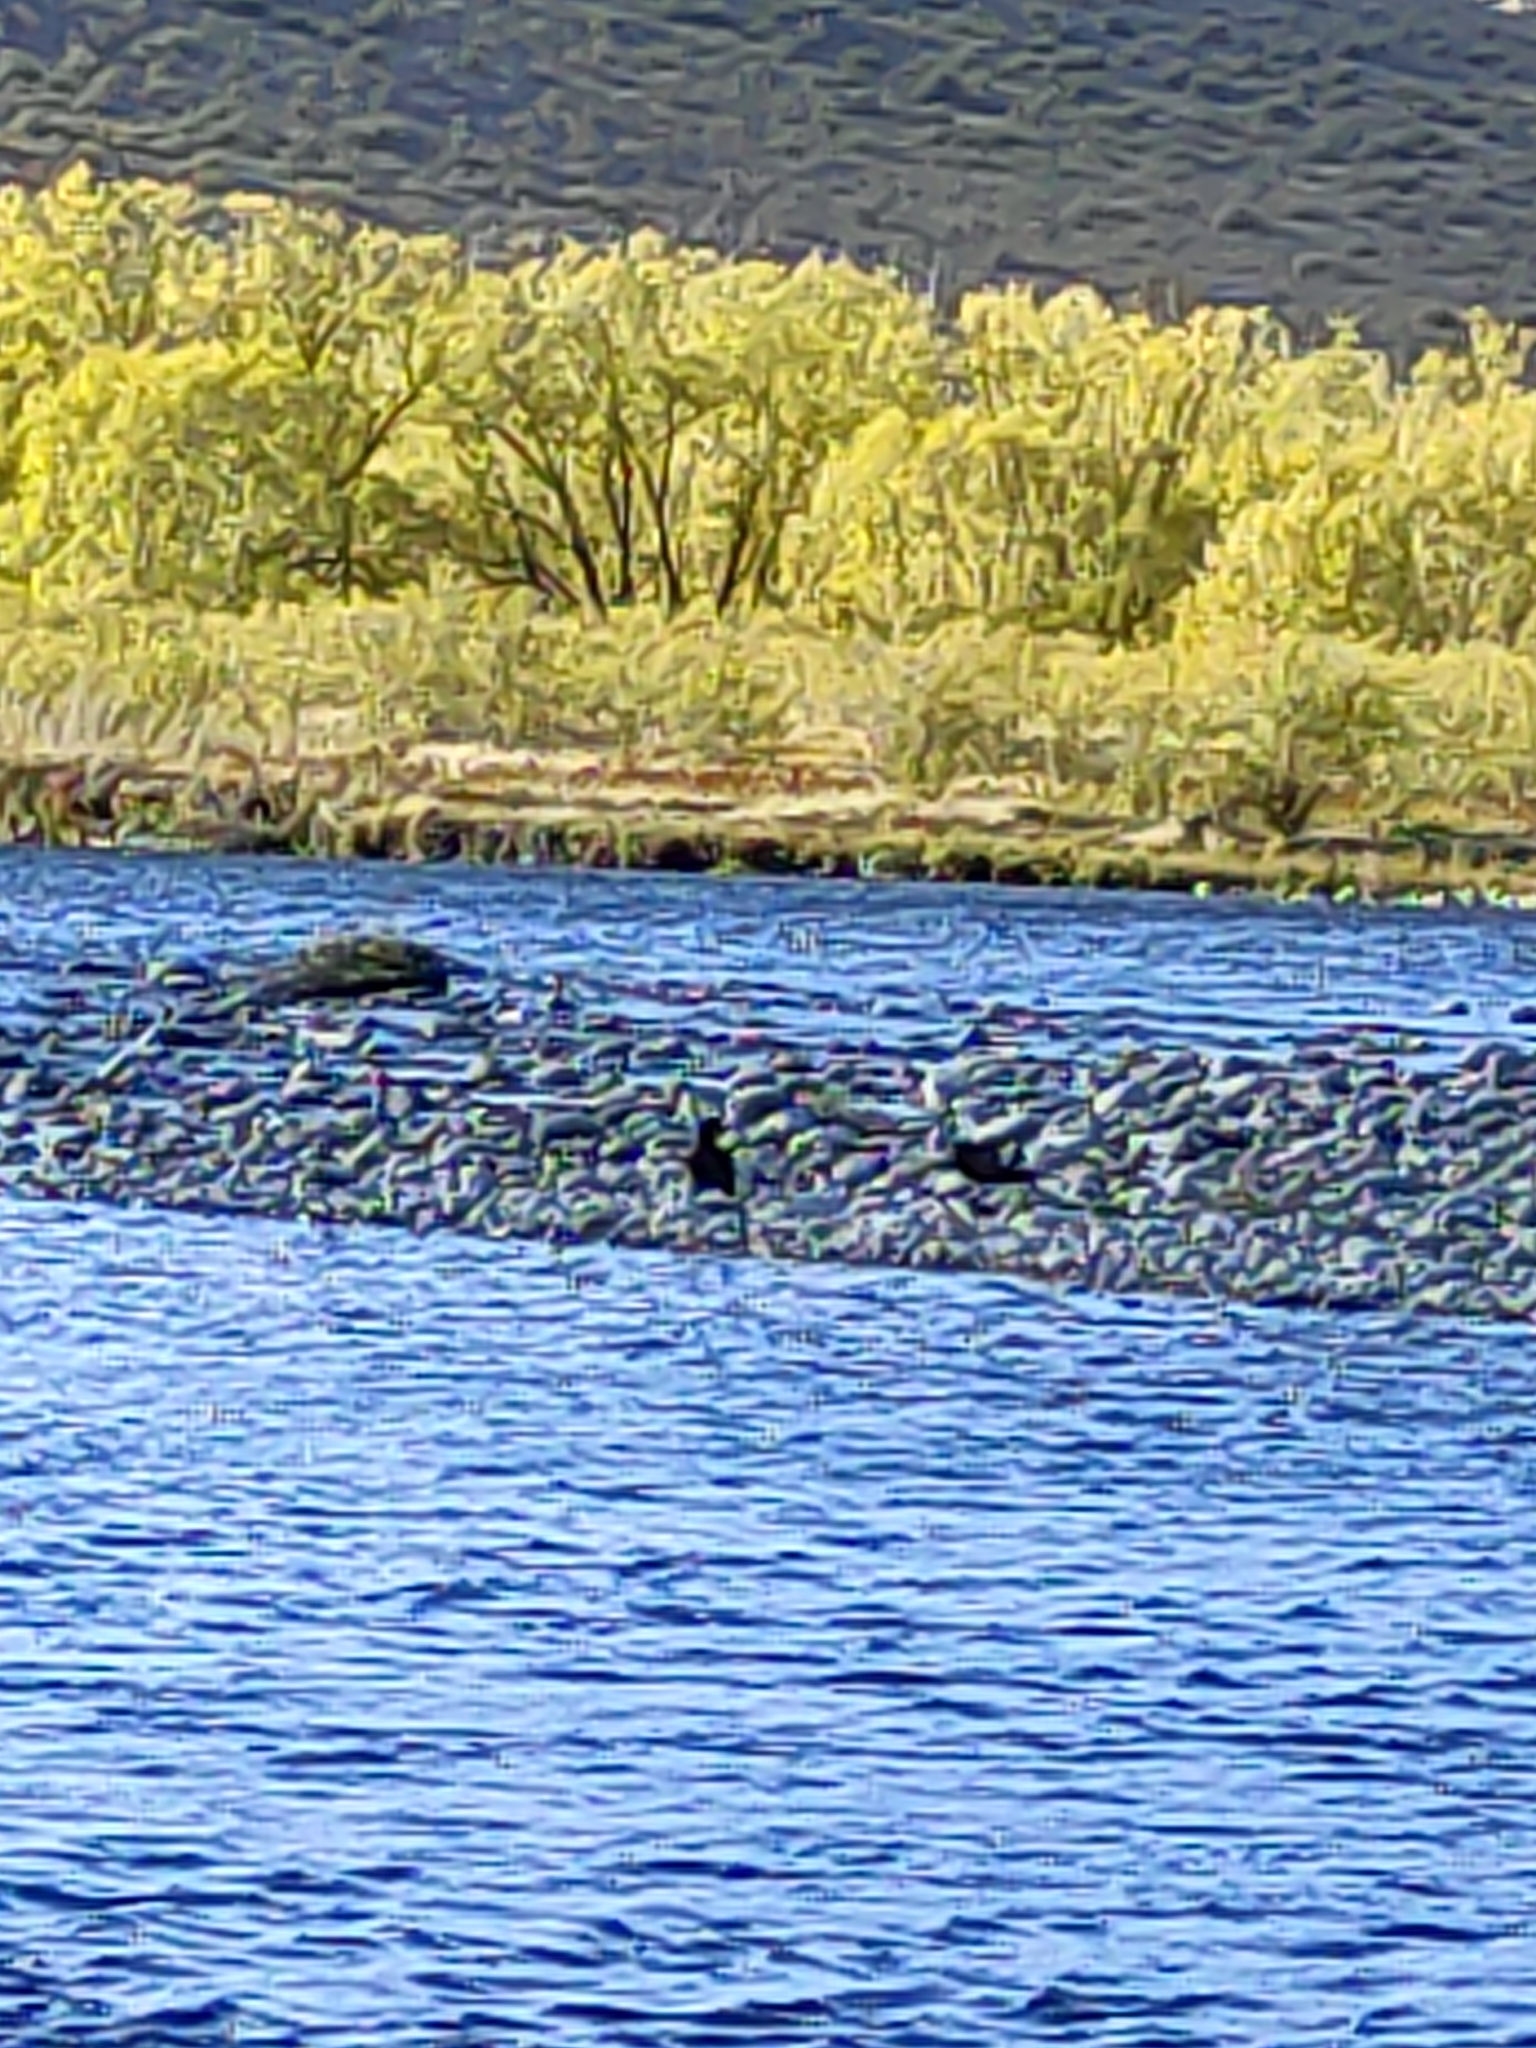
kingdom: Animalia
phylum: Chordata
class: Aves
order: Anseriformes
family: Anatidae
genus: Tadorna
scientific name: Tadorna variegata
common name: Paradise shelduck
